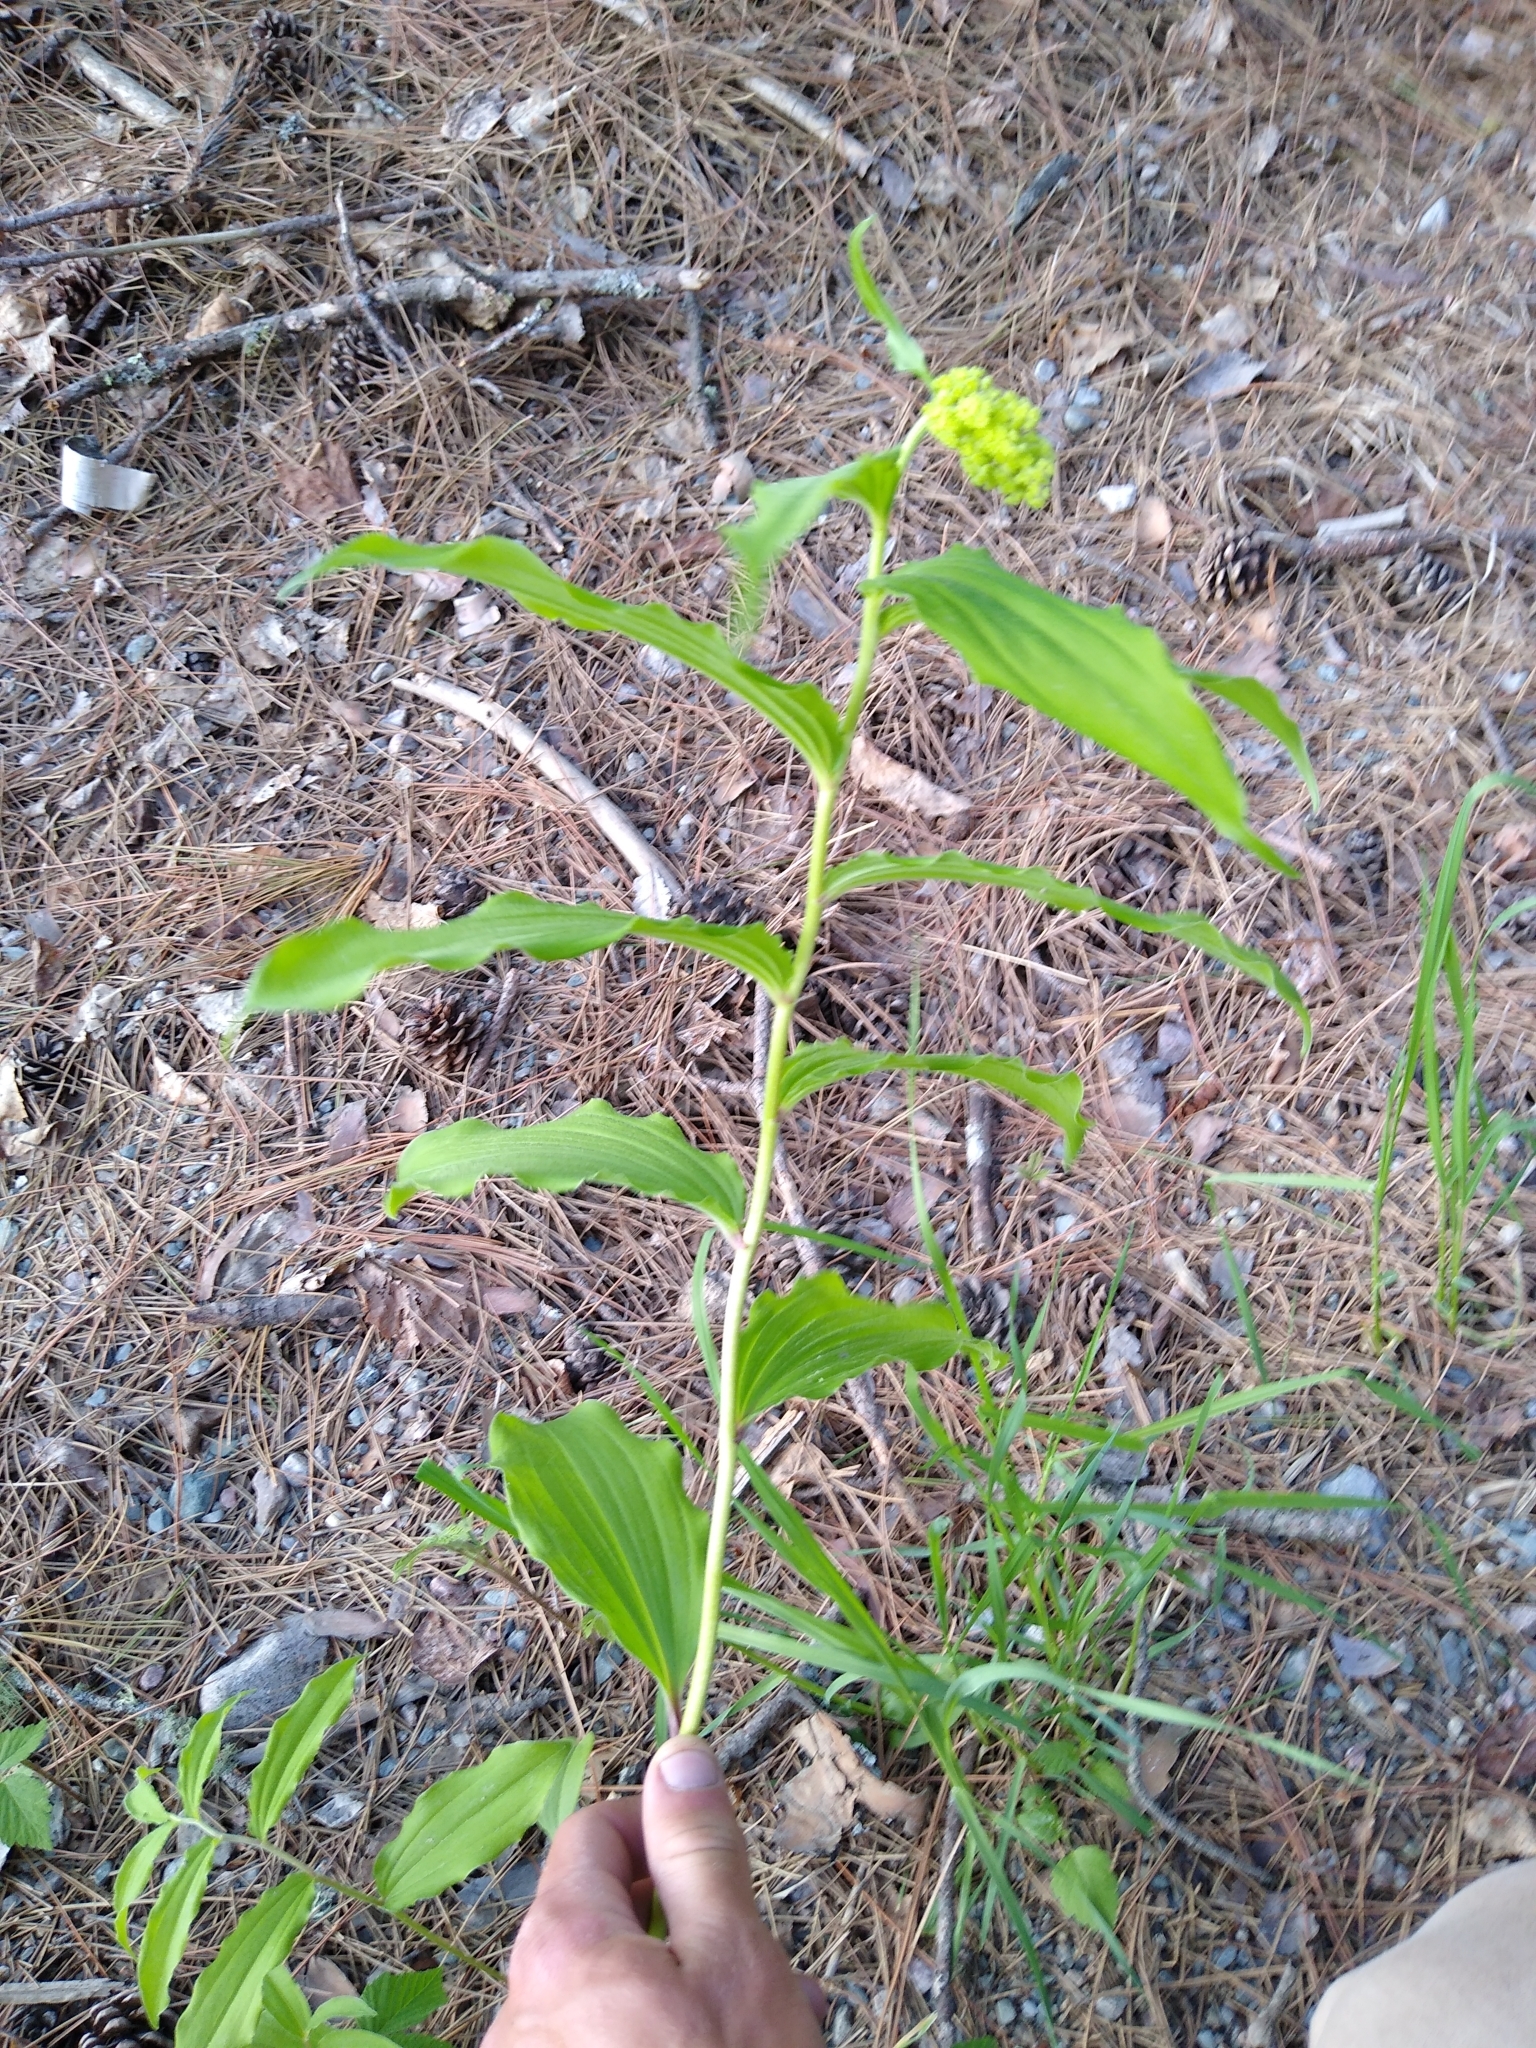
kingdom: Plantae
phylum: Tracheophyta
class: Liliopsida
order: Asparagales
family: Asparagaceae
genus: Maianthemum
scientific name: Maianthemum racemosum
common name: False spikenard
